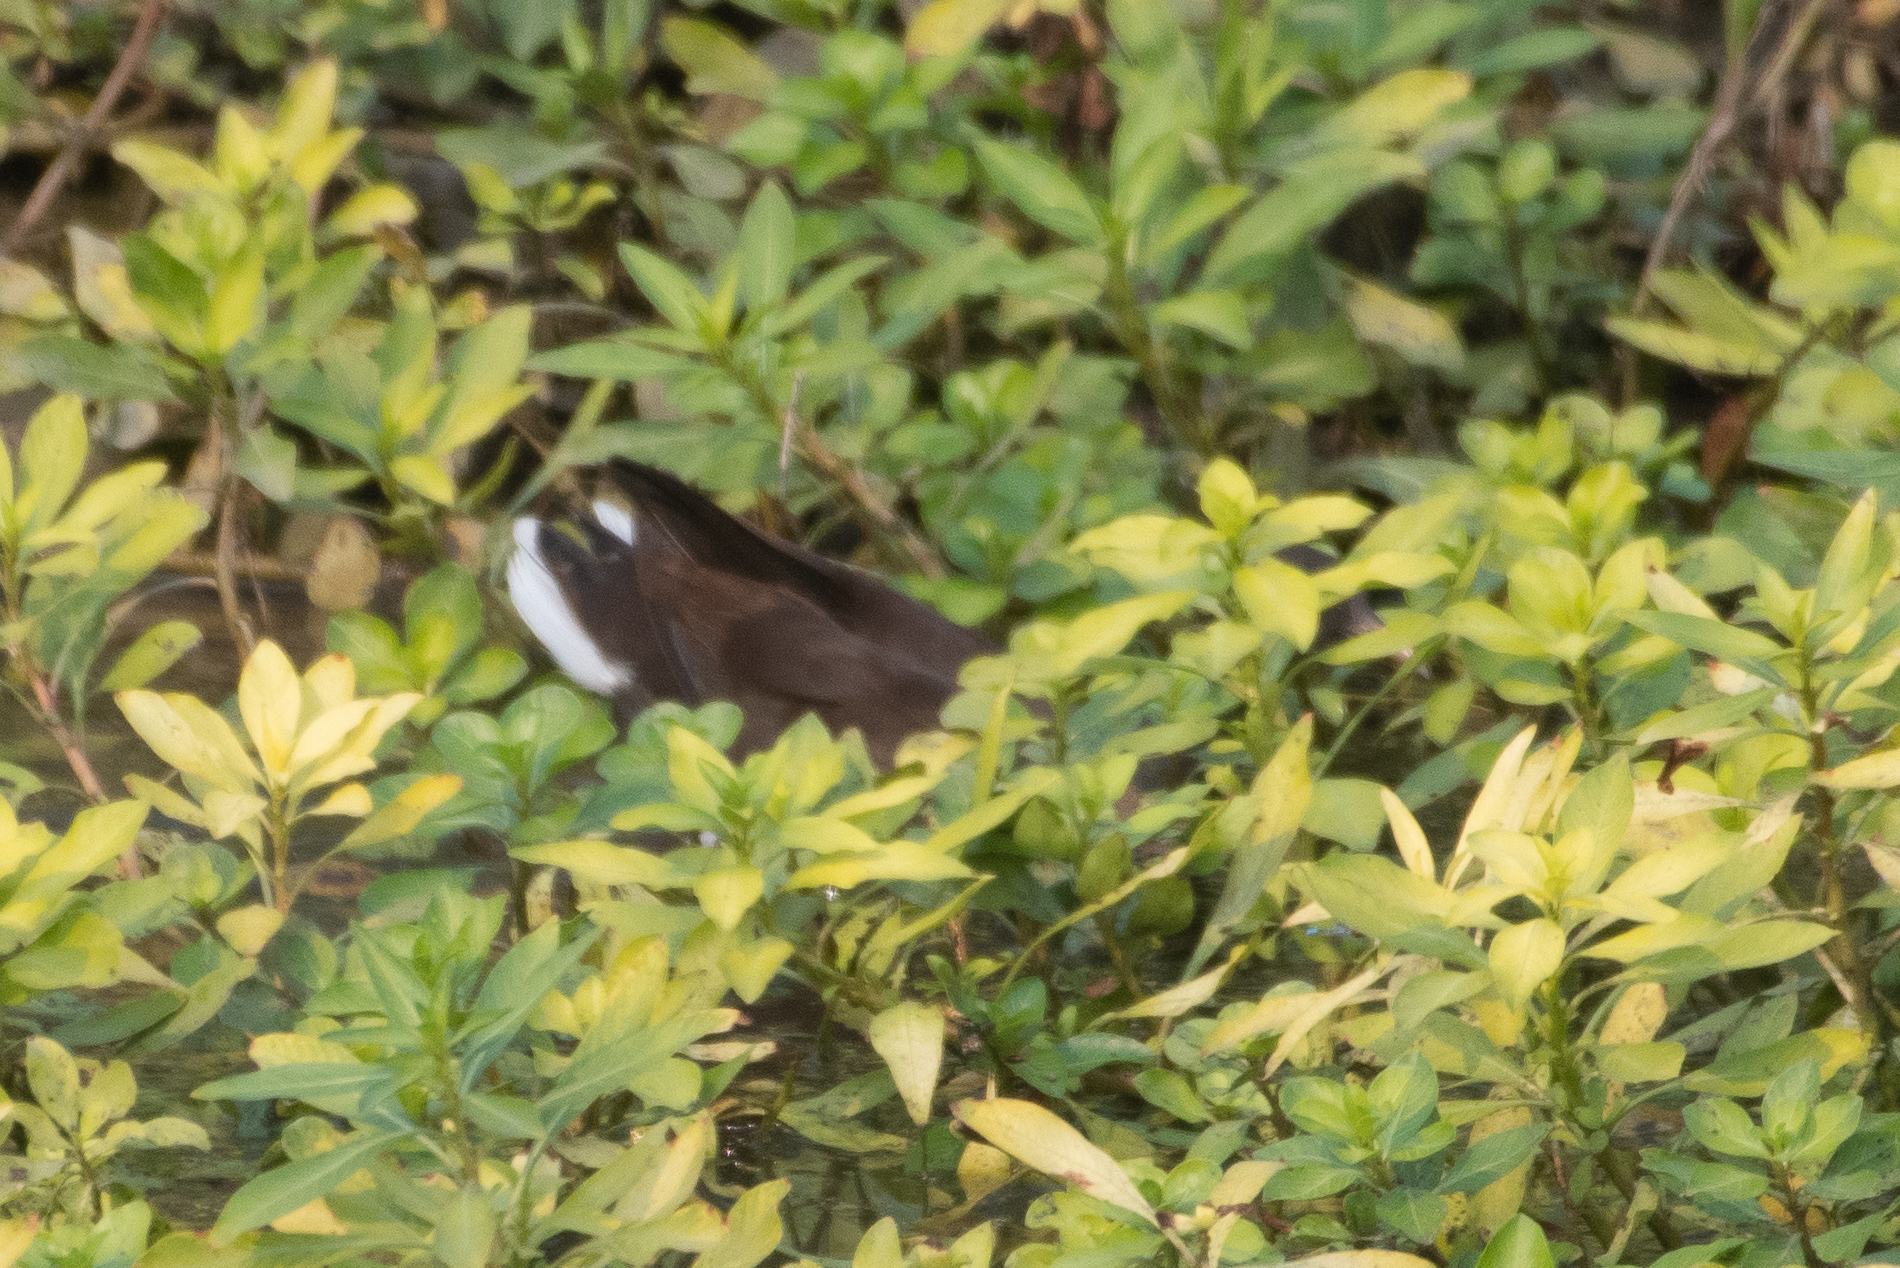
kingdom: Animalia
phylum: Chordata
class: Aves
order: Gruiformes
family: Rallidae
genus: Gallinula
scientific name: Gallinula chloropus
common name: Common moorhen
